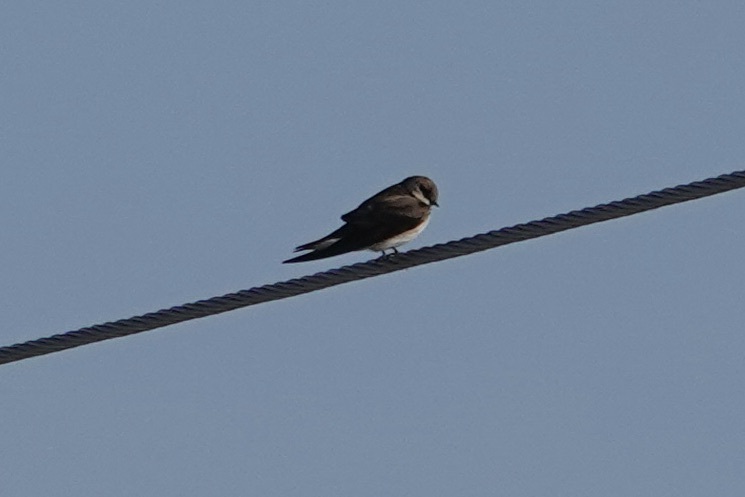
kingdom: Animalia
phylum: Chordata
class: Aves
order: Passeriformes
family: Hirundinidae
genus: Stelgidopteryx
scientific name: Stelgidopteryx serripennis
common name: Northern rough-winged swallow
